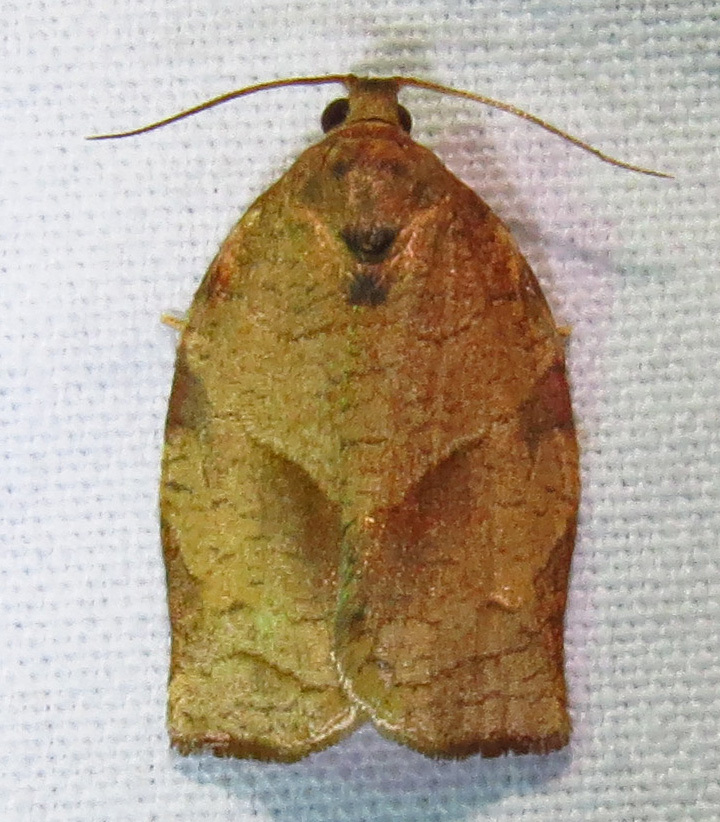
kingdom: Animalia
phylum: Arthropoda
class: Insecta
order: Lepidoptera
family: Tortricidae
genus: Choristoneura
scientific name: Choristoneura rosaceana
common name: Oblique-banded leafroller moth
